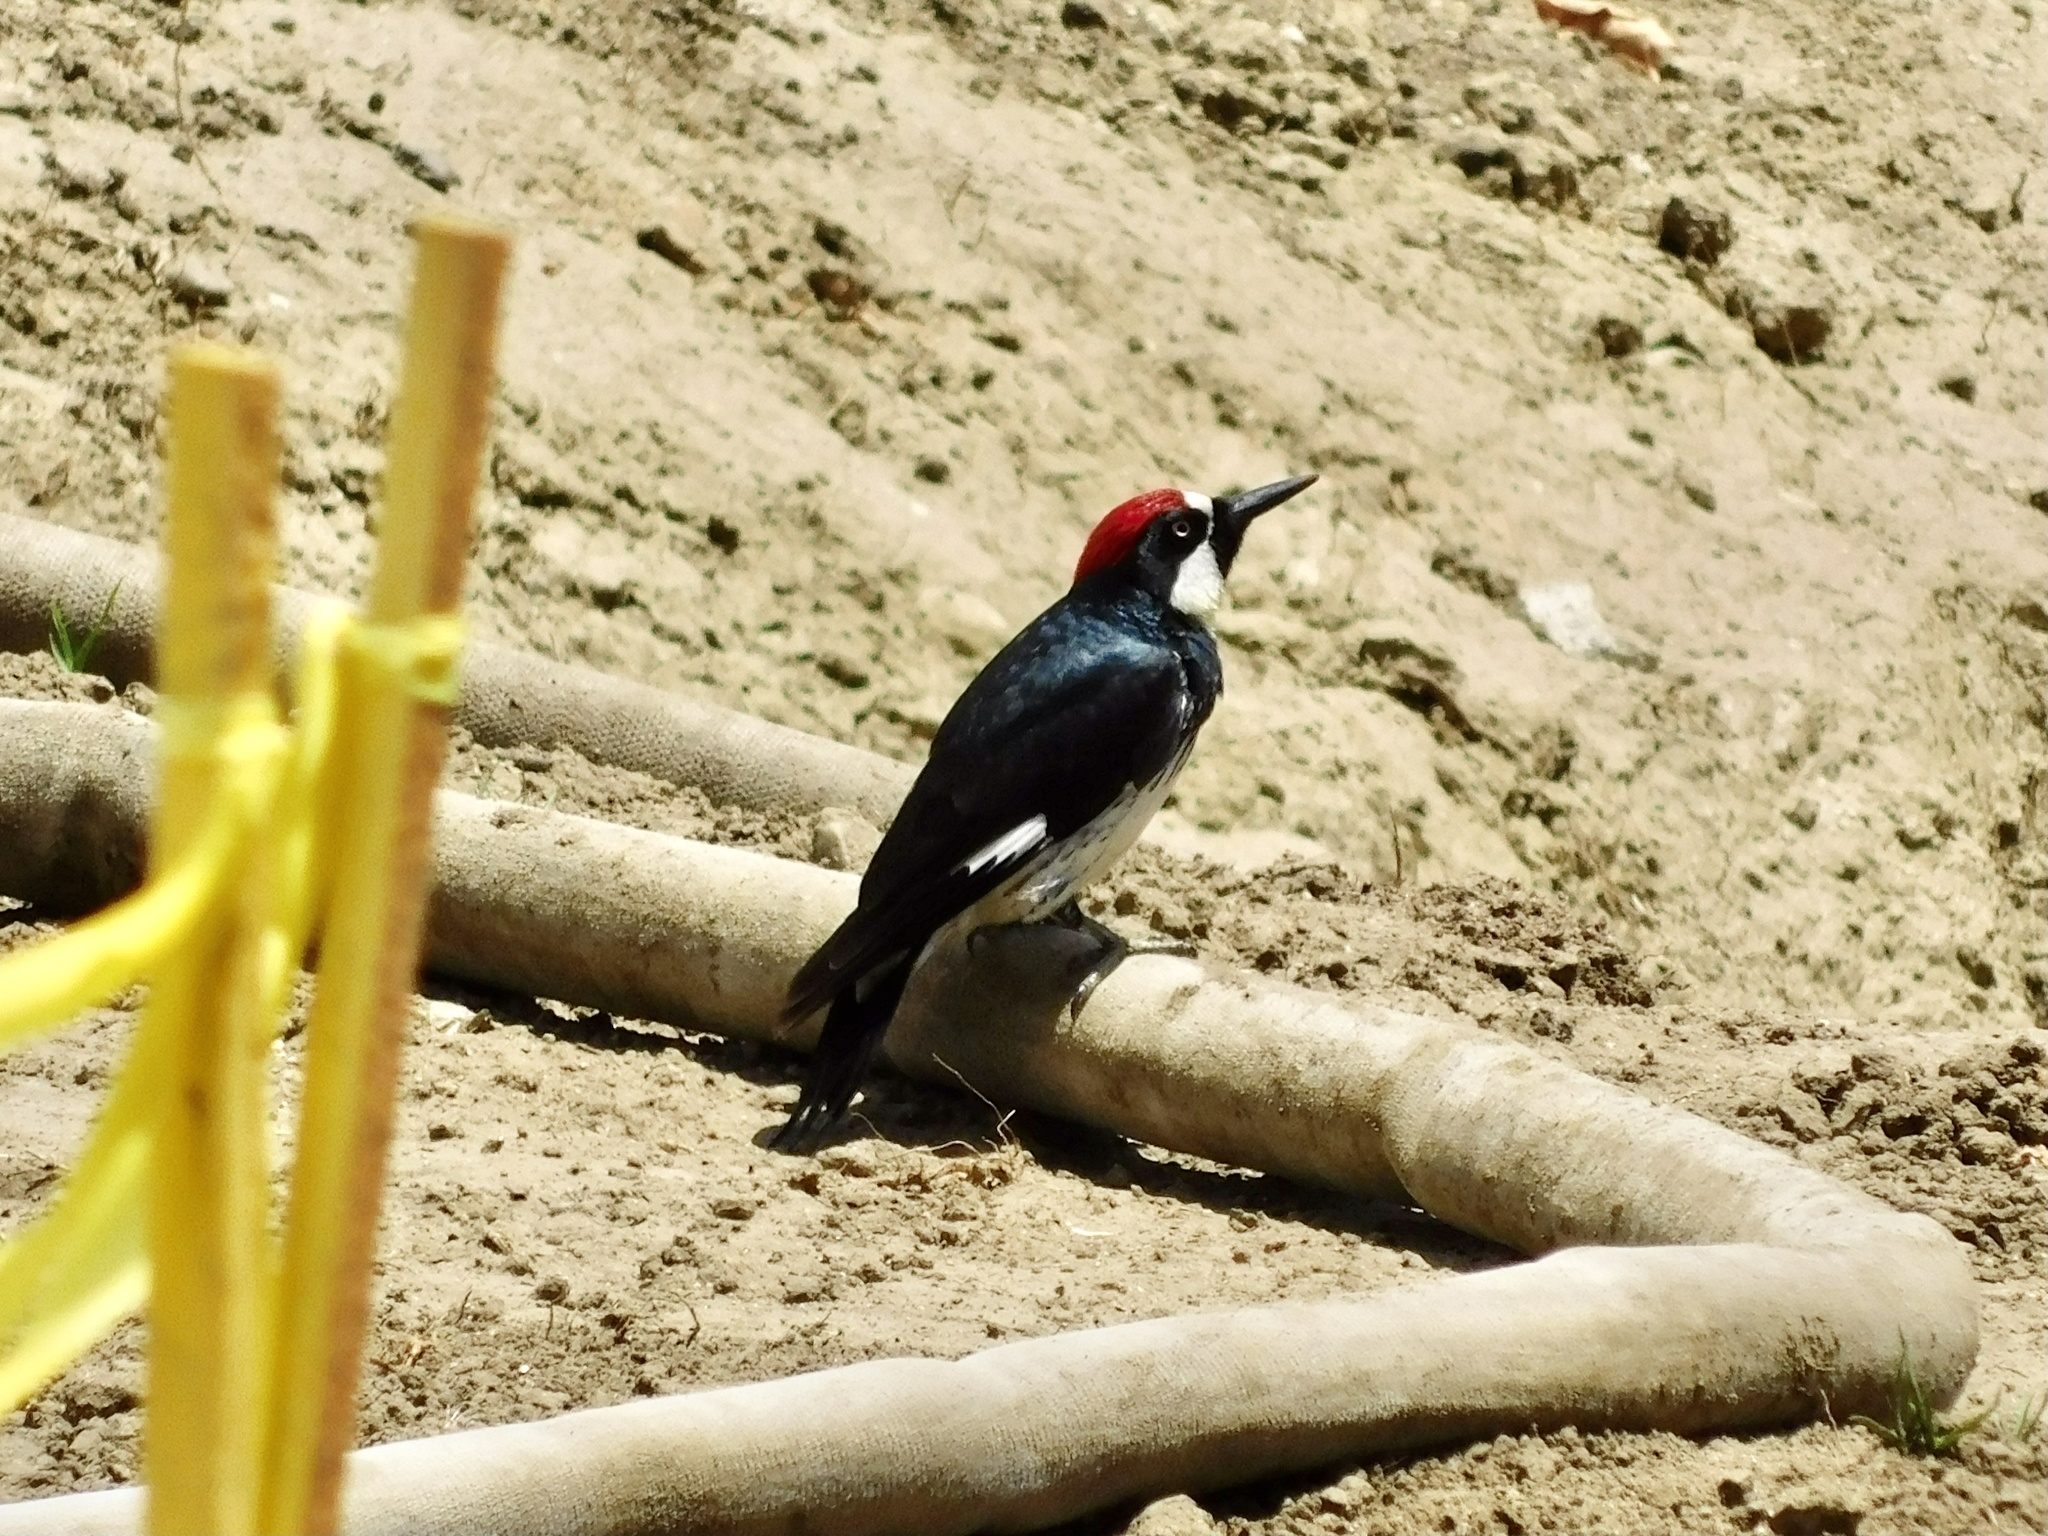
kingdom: Animalia
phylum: Chordata
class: Aves
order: Piciformes
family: Picidae
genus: Melanerpes
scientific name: Melanerpes formicivorus
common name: Acorn woodpecker
